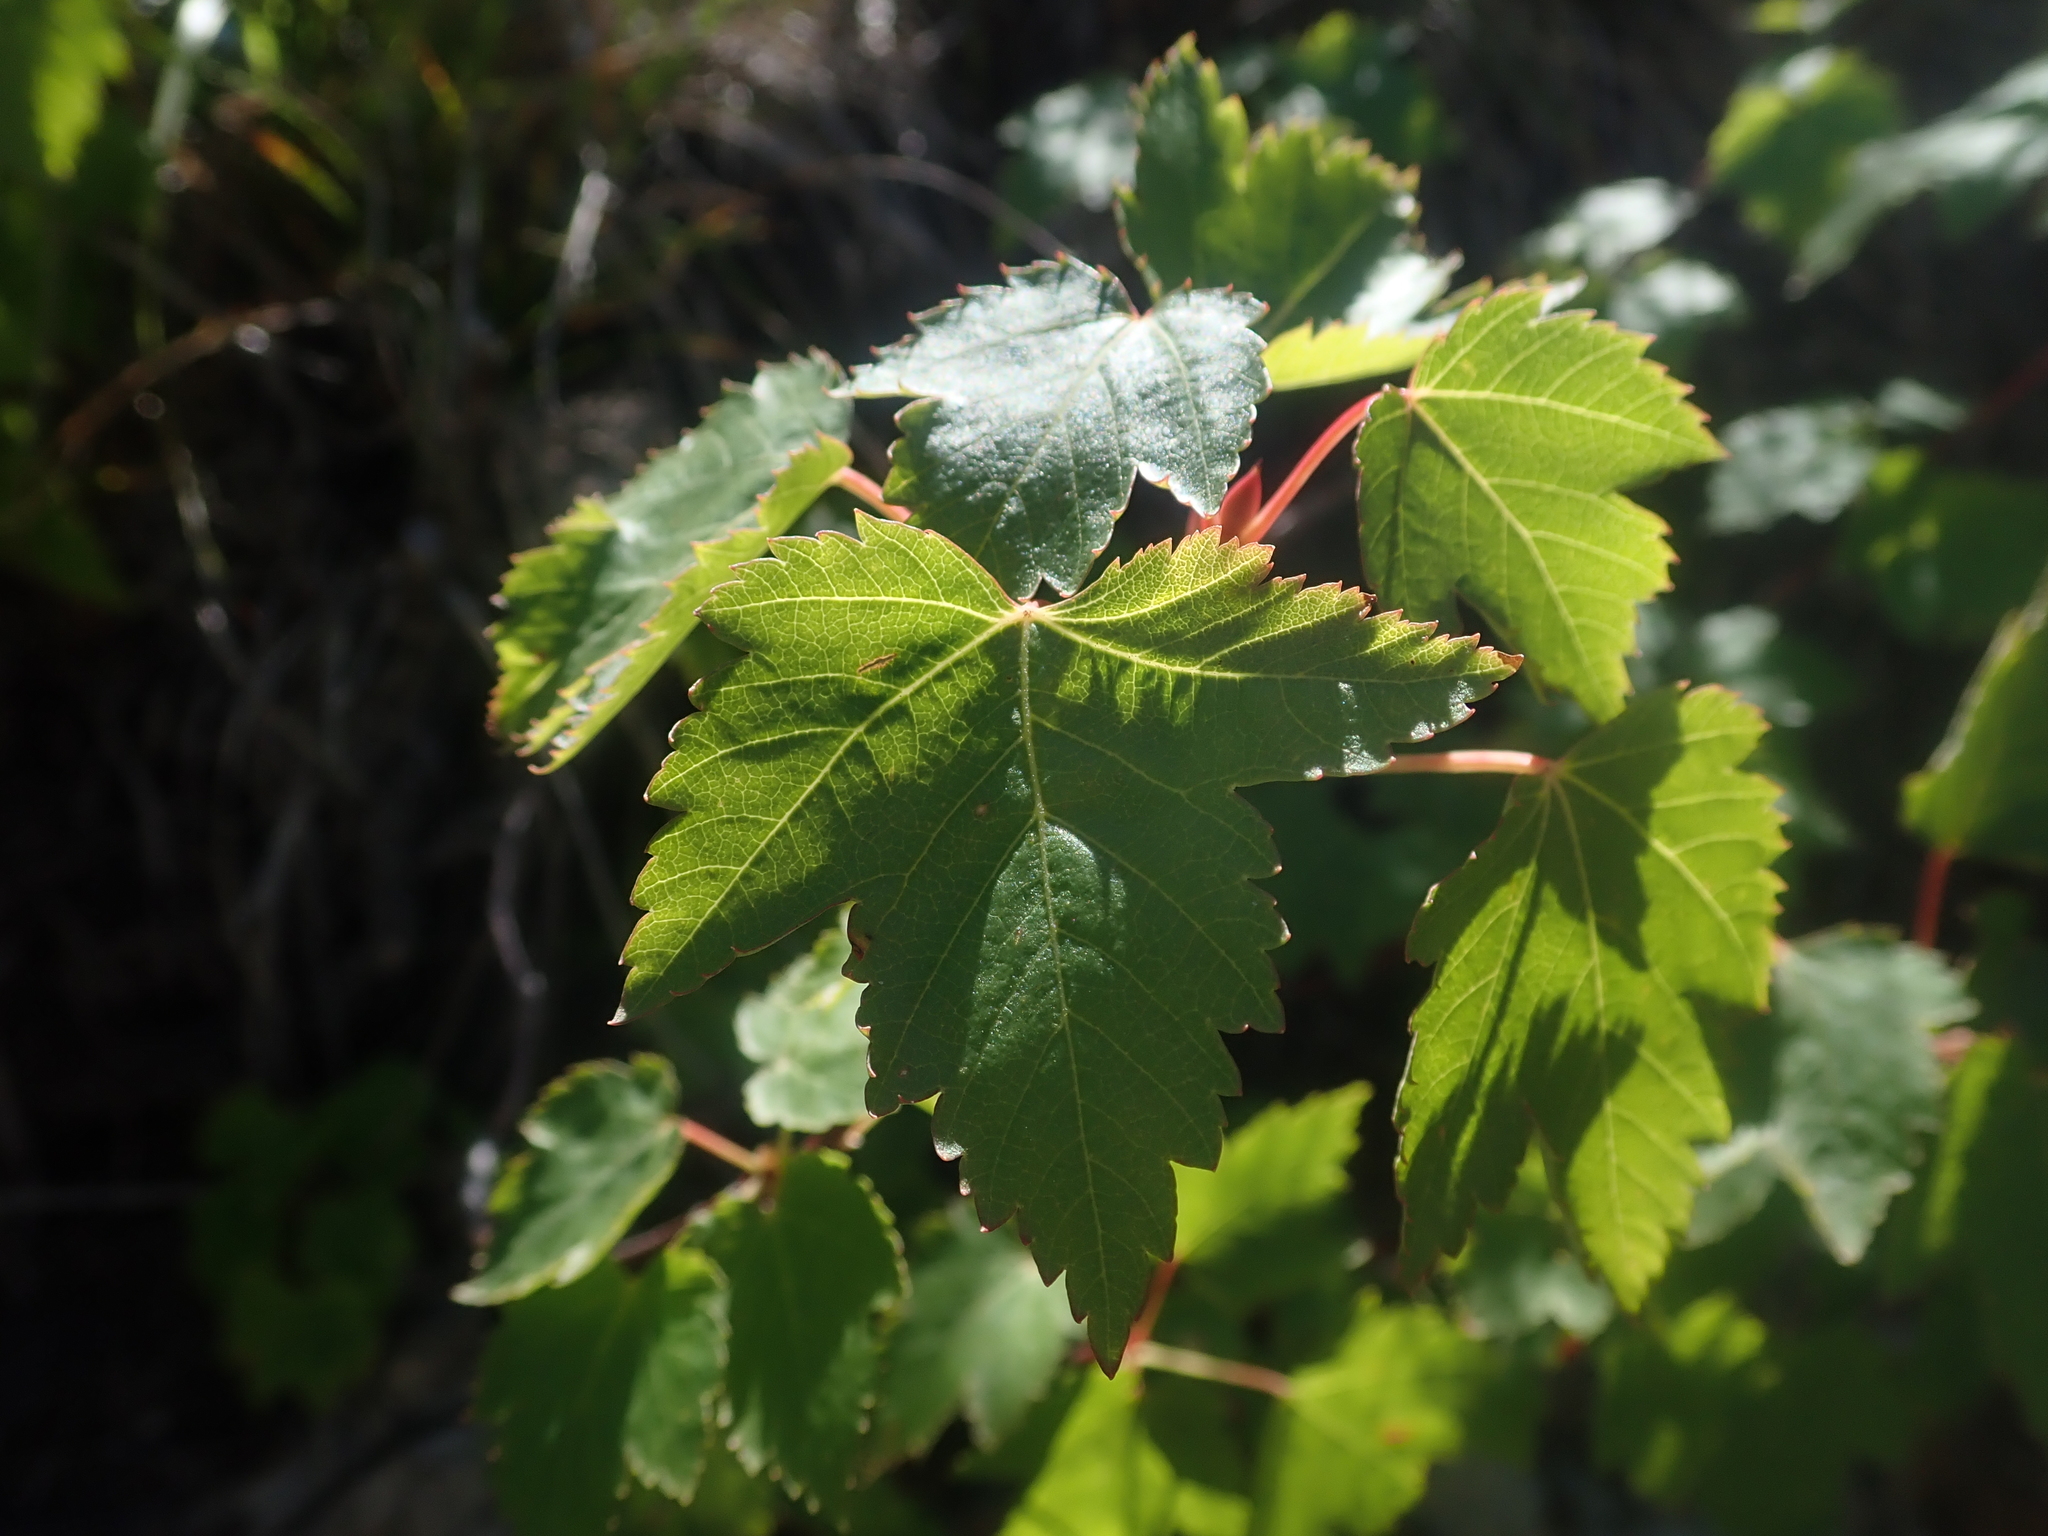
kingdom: Plantae
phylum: Tracheophyta
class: Magnoliopsida
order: Sapindales
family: Sapindaceae
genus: Acer
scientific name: Acer glabrum
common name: Rocky mountain maple
